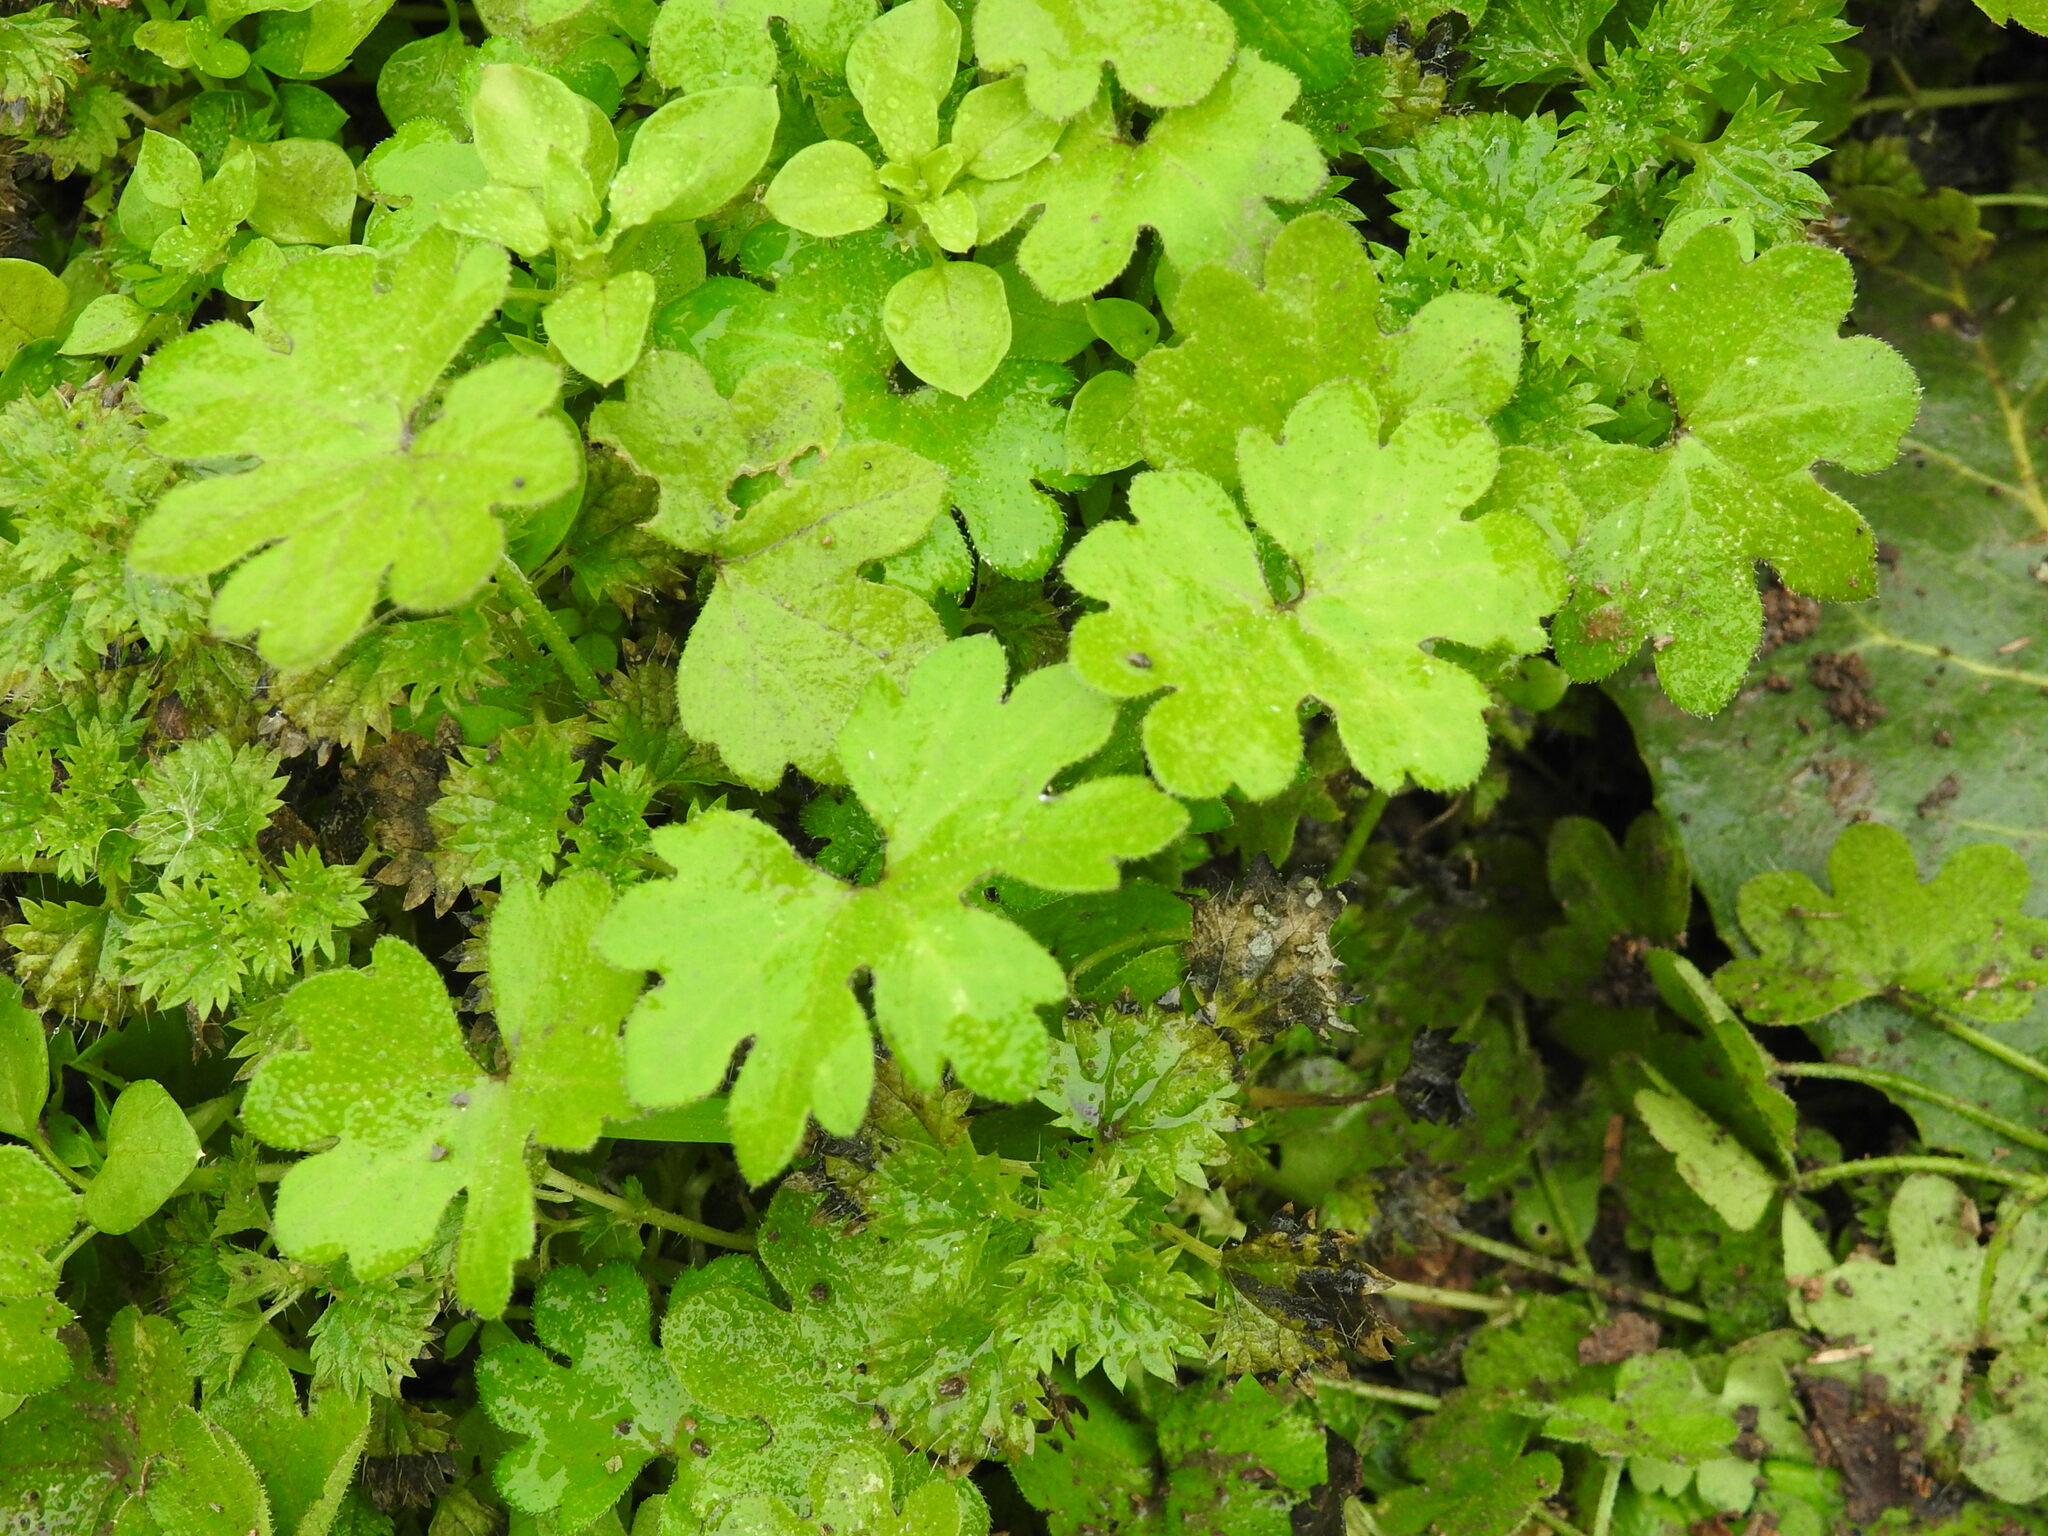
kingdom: Plantae
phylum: Tracheophyta
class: Magnoliopsida
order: Apiales
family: Apiaceae
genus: Bowlesia
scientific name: Bowlesia incana
